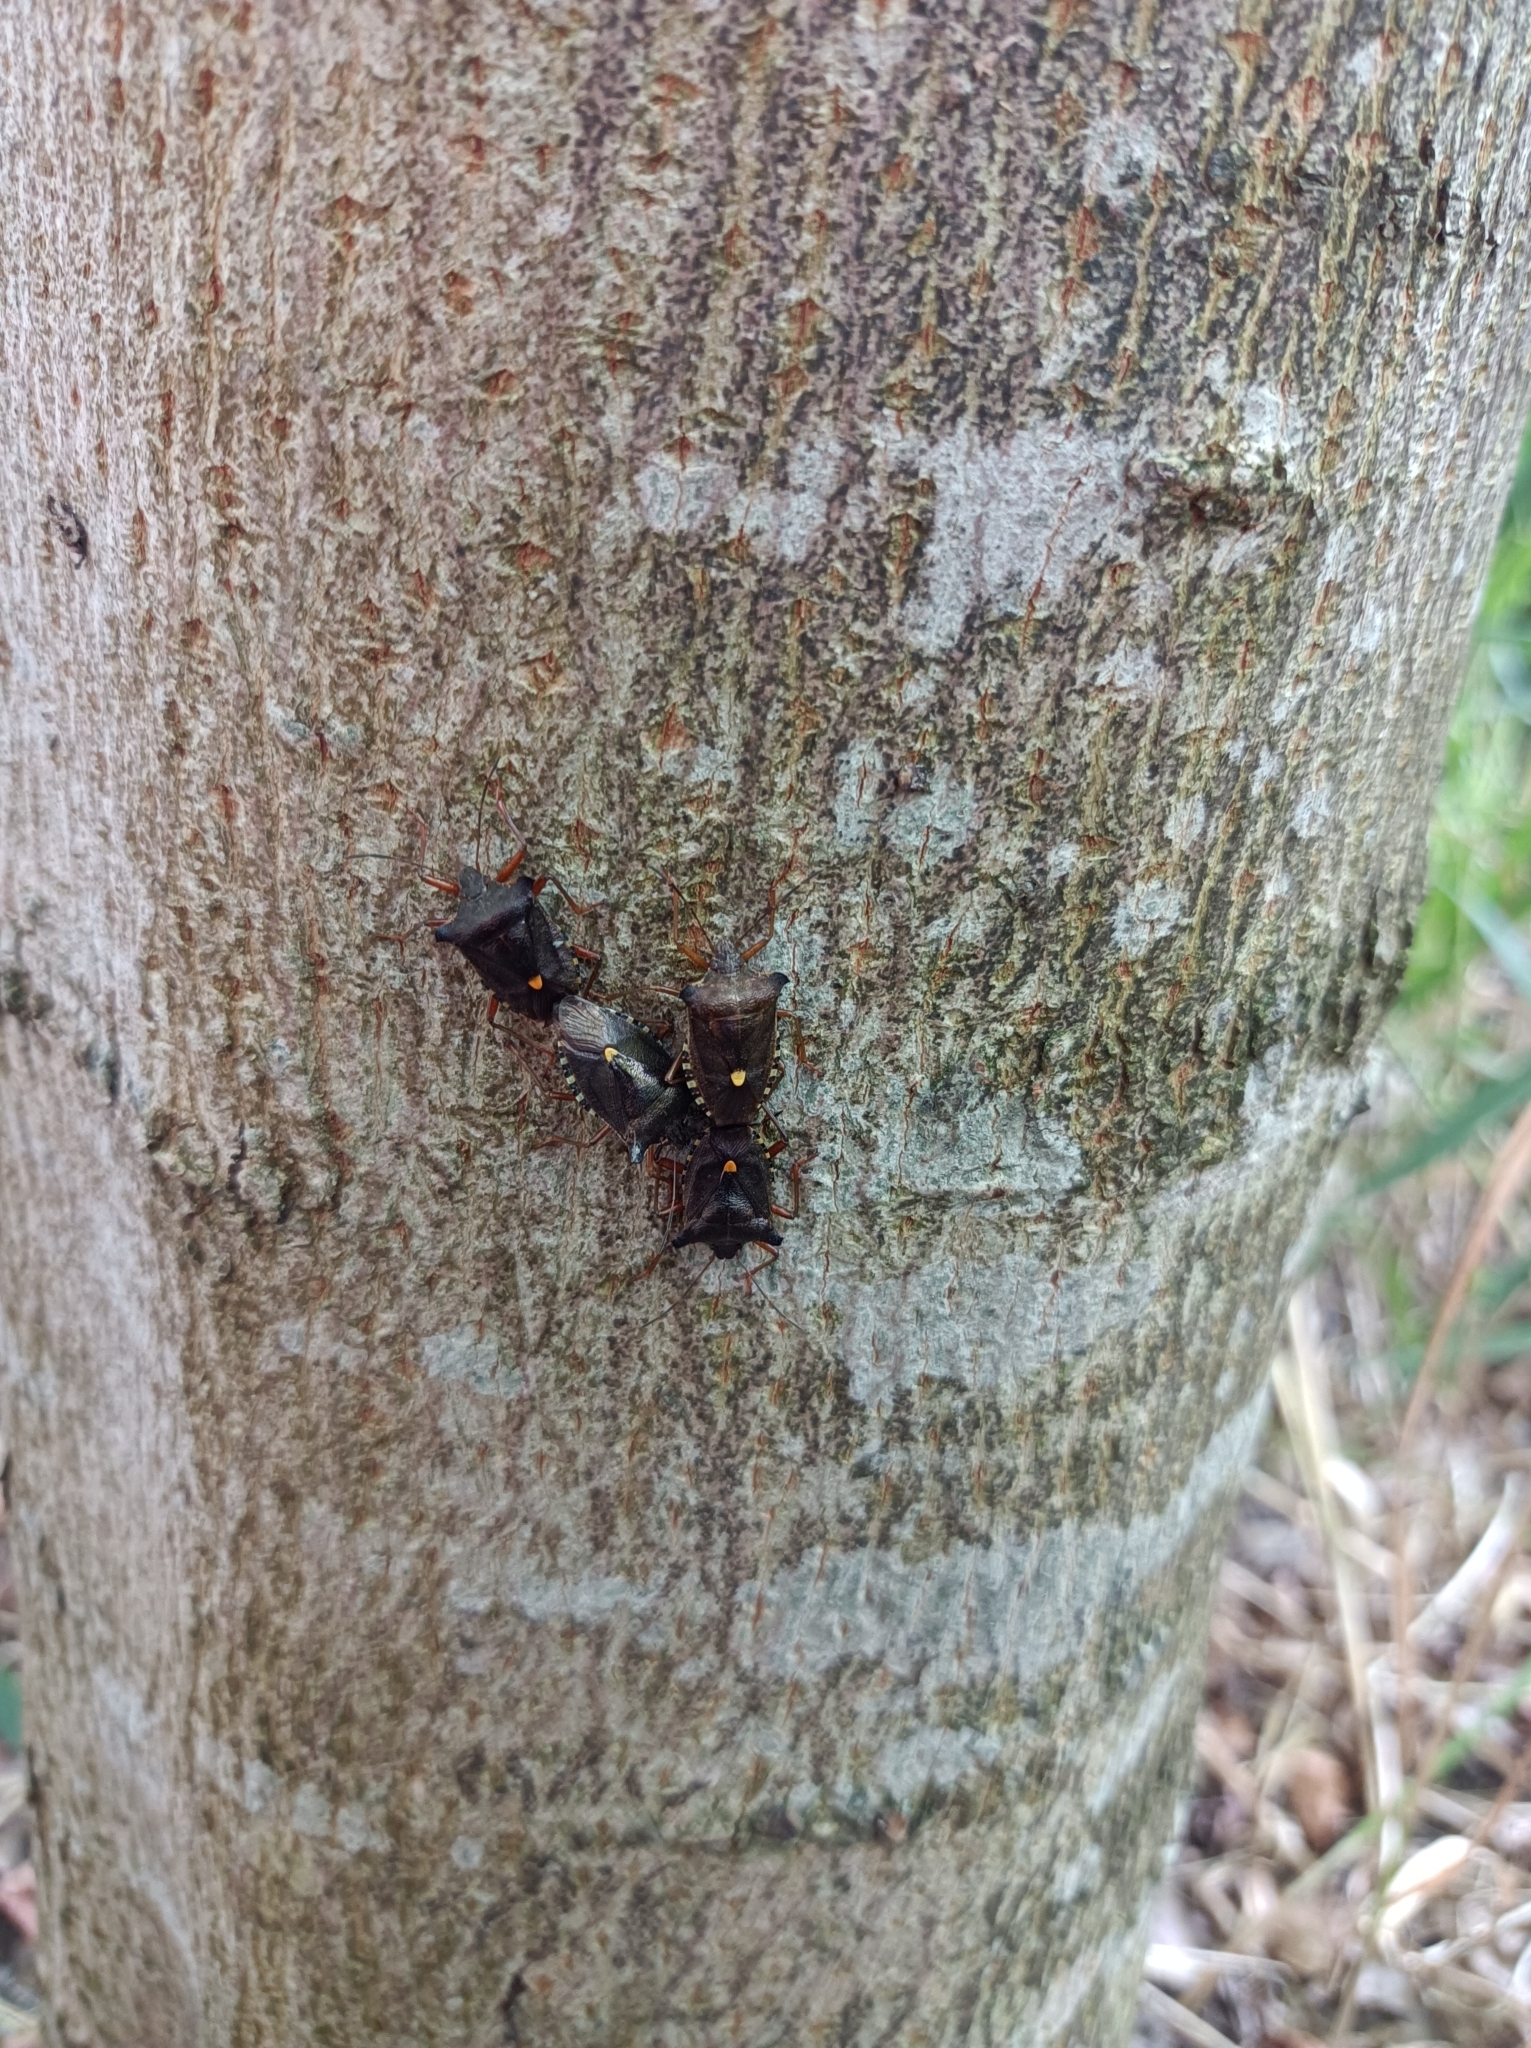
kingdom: Animalia
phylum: Arthropoda
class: Insecta
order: Hemiptera
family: Pentatomidae
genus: Pentatoma
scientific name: Pentatoma rufipes
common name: Forest bug
